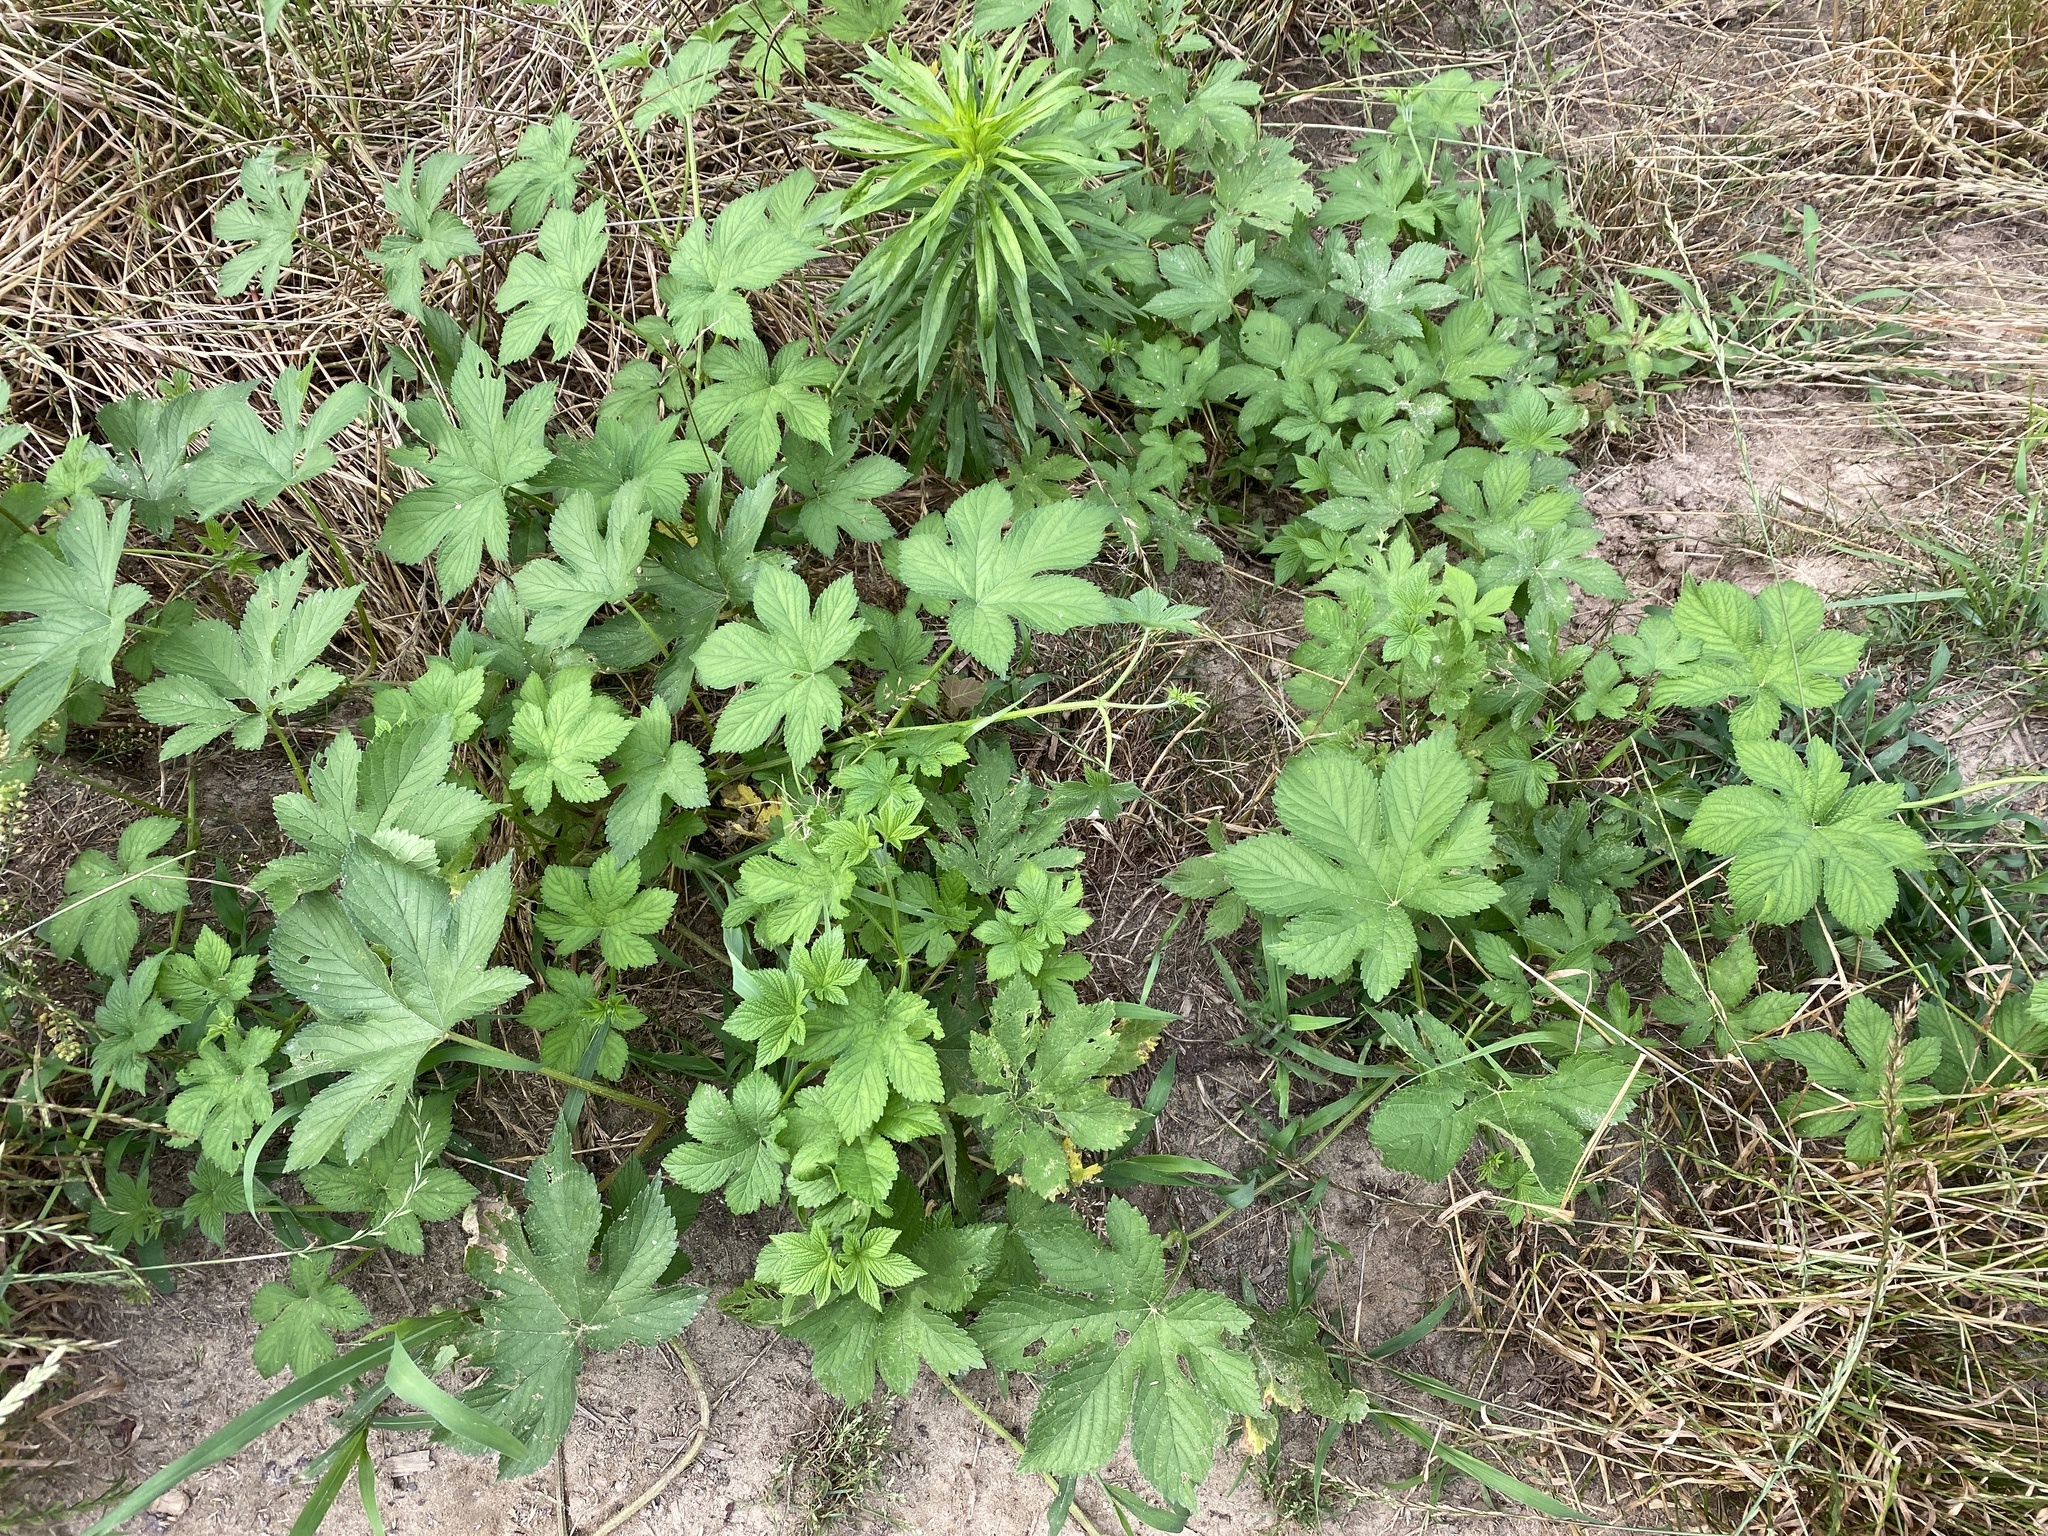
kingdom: Plantae
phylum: Tracheophyta
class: Magnoliopsida
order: Rosales
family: Cannabaceae
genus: Humulus
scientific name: Humulus scandens
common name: Japanese hop
